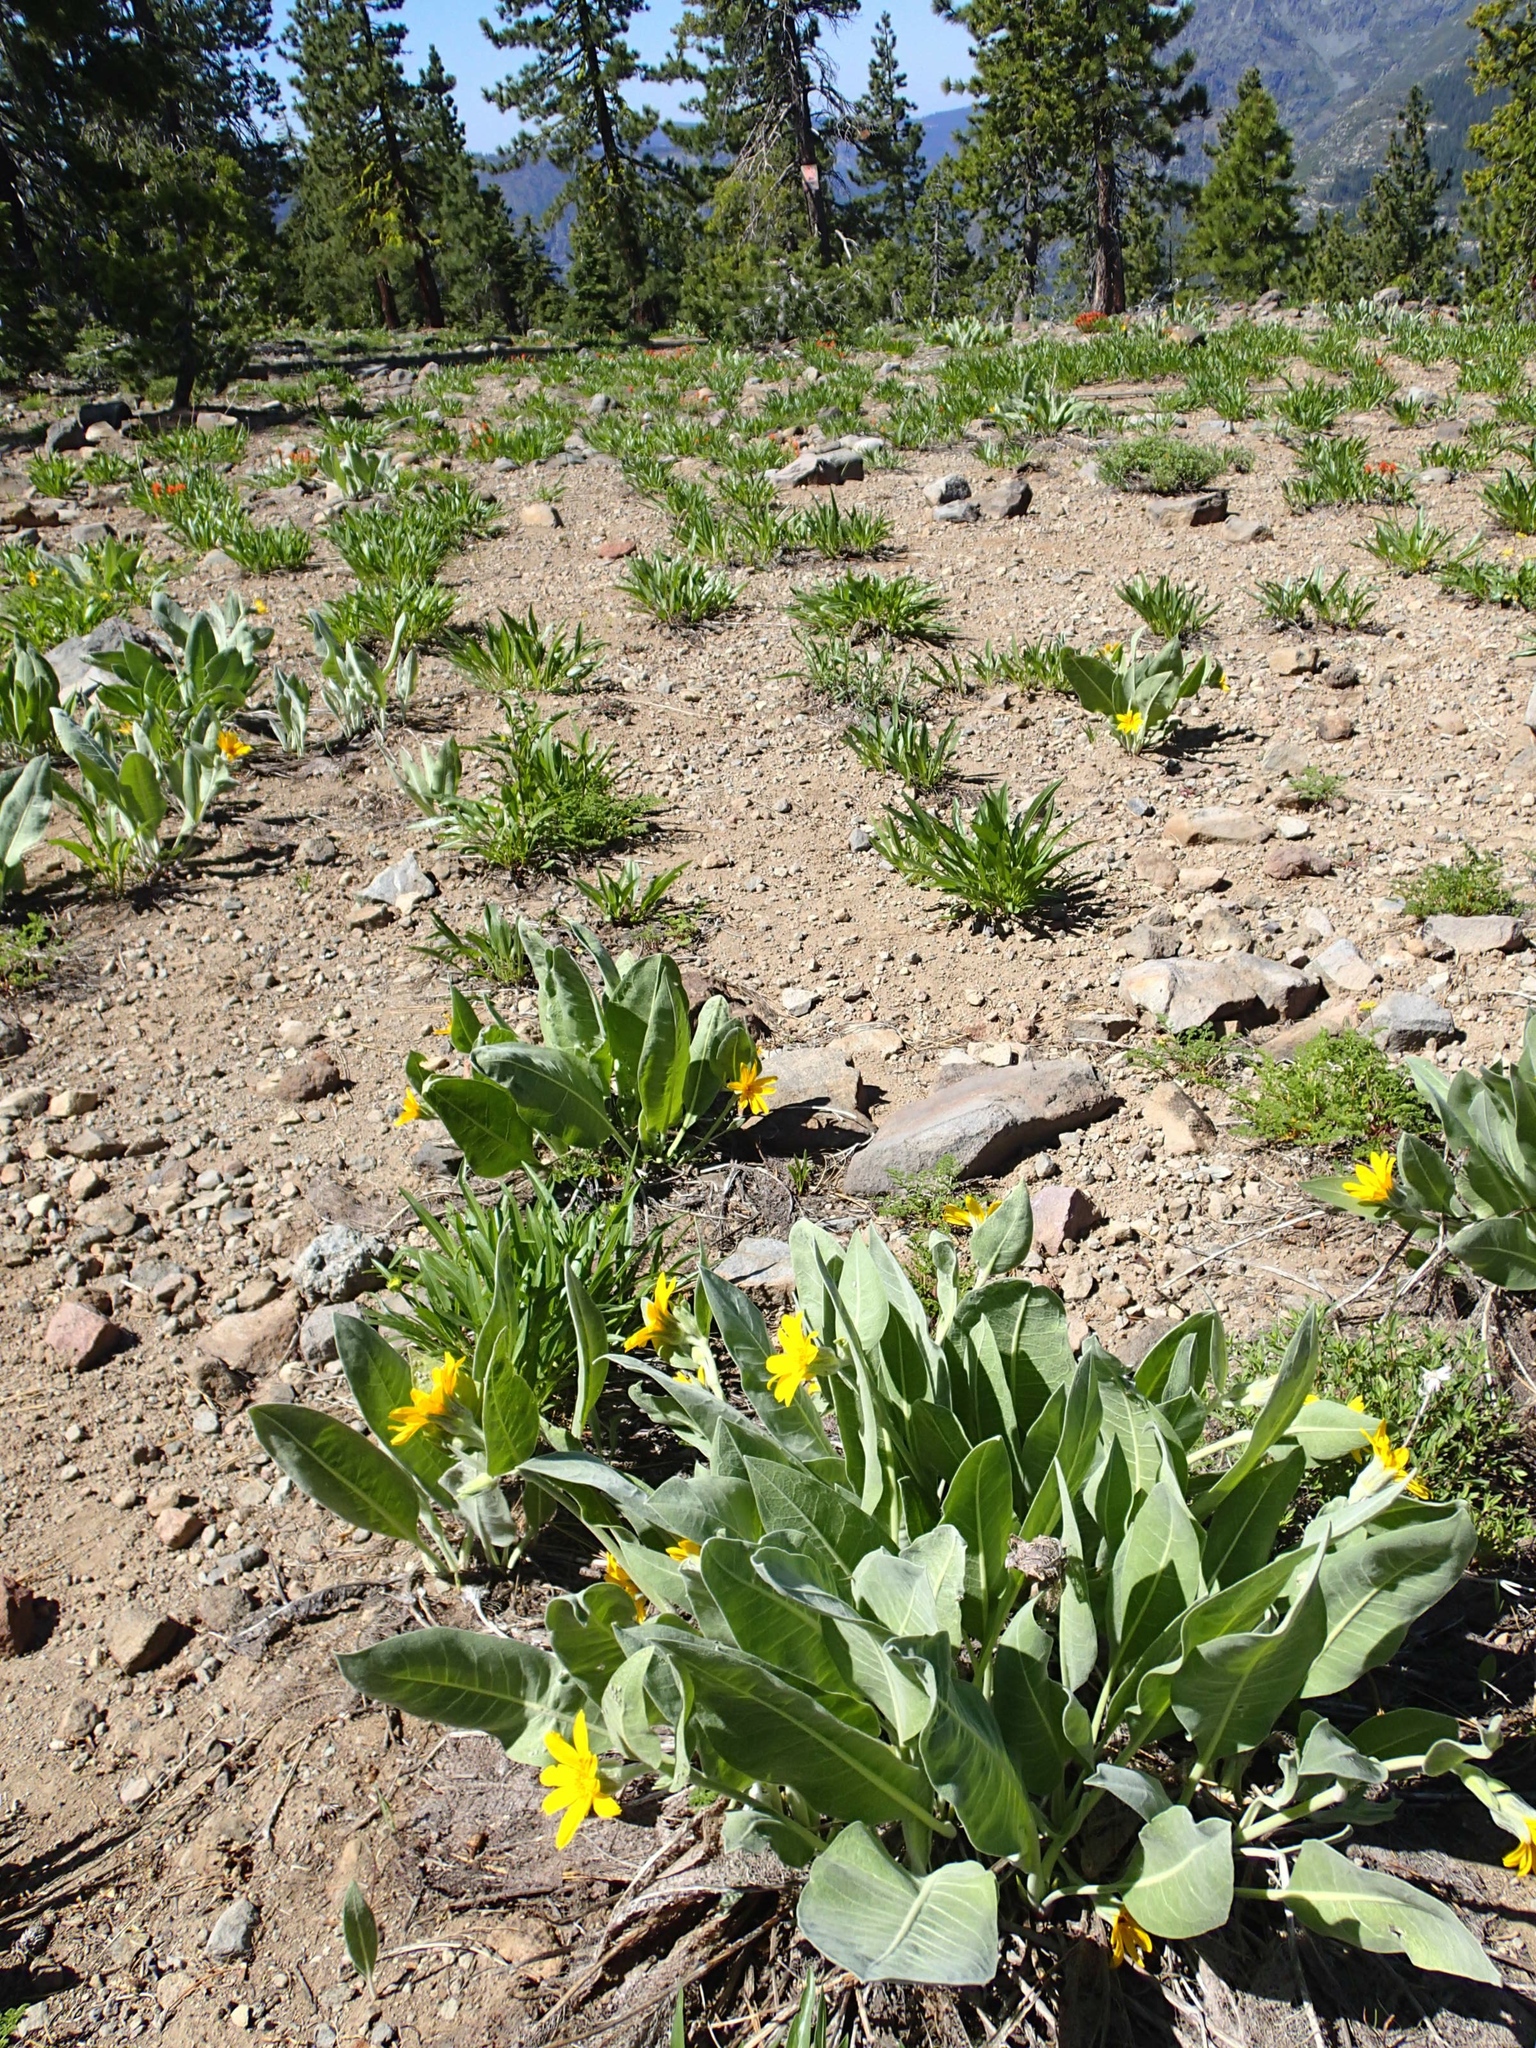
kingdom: Plantae
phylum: Tracheophyta
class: Magnoliopsida
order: Asterales
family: Asteraceae
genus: Wyethia
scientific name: Wyethia mollis
